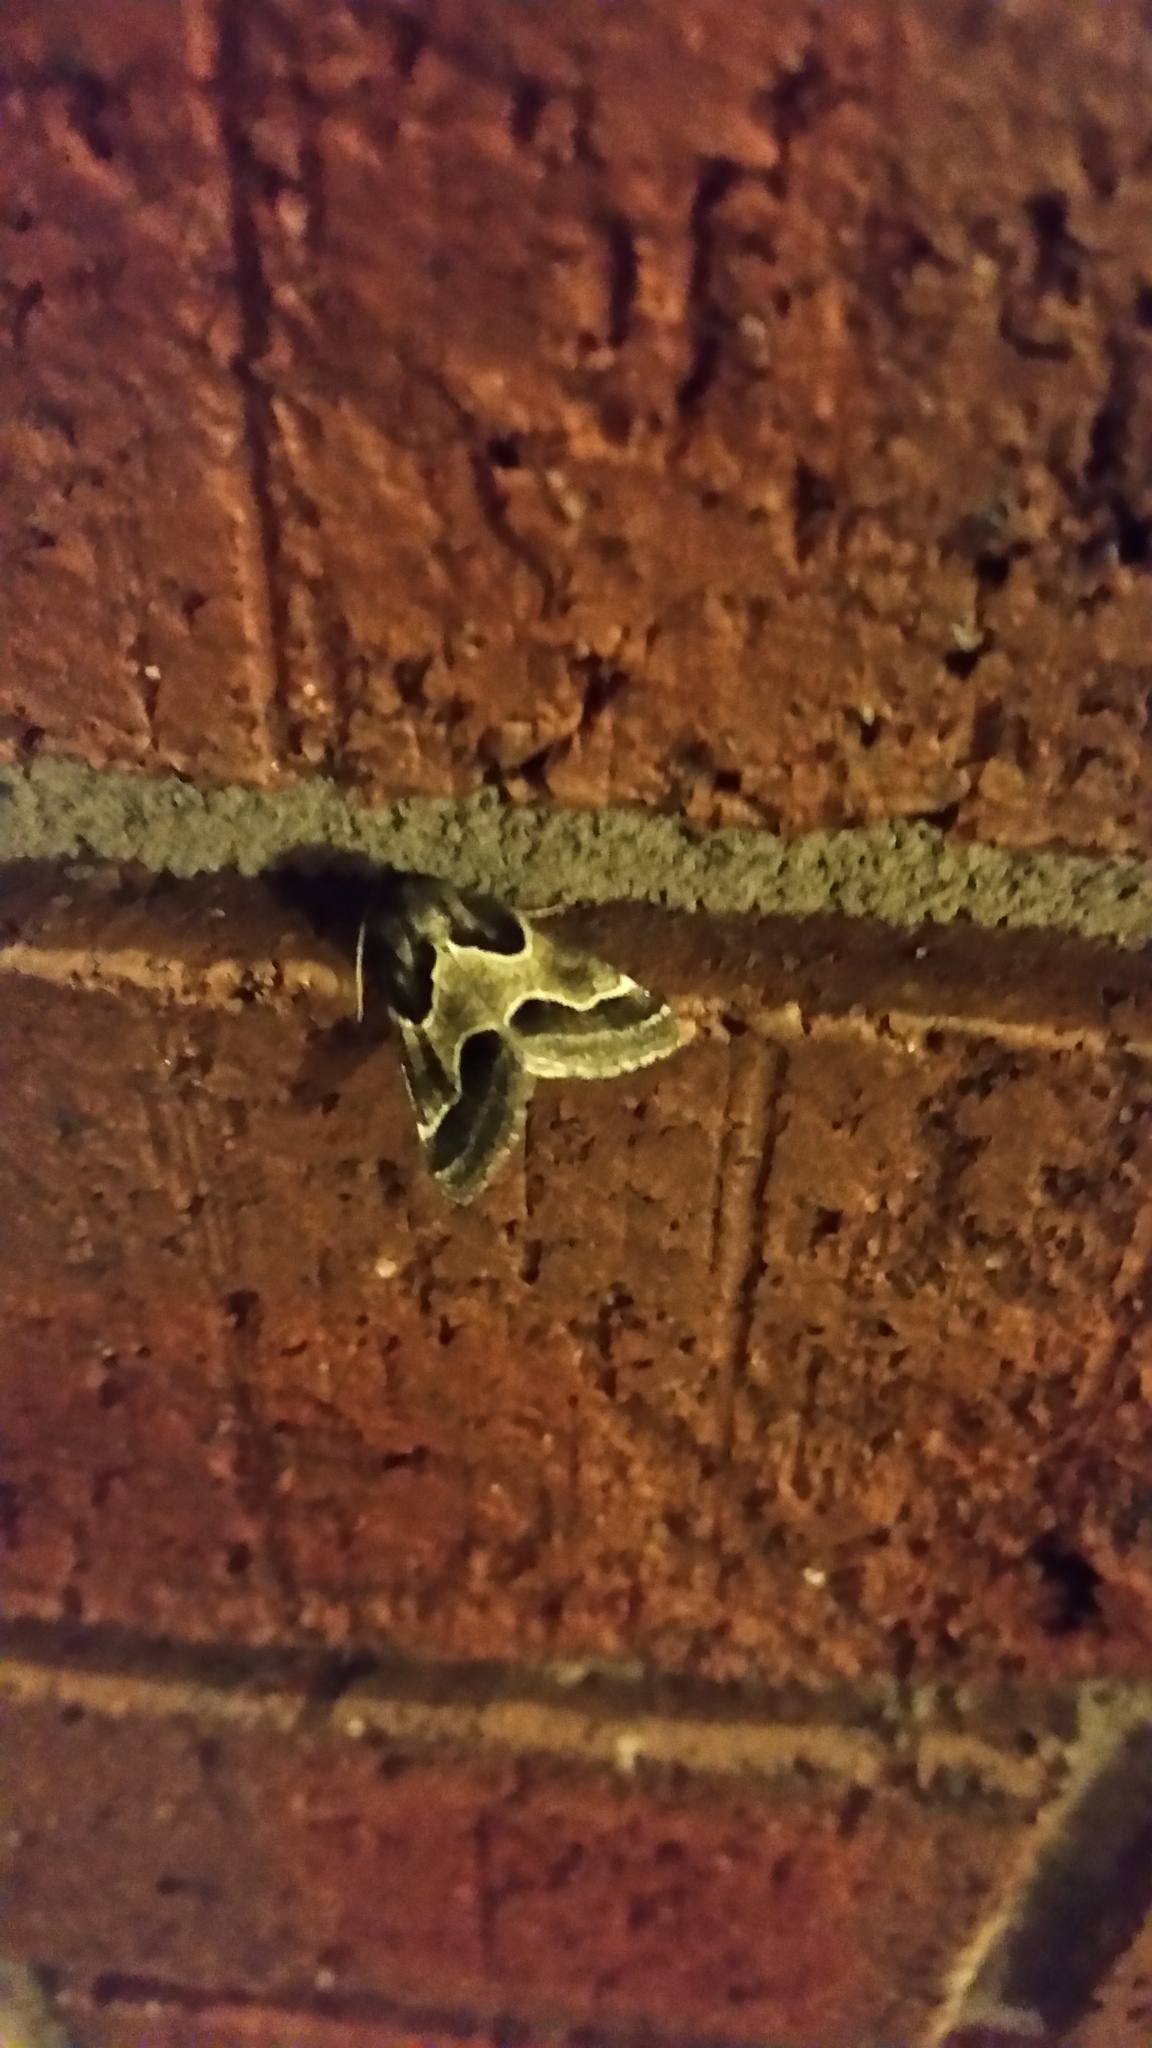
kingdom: Animalia
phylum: Arthropoda
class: Insecta
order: Lepidoptera
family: Noctuidae
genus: Schinia
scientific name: Schinia rivulosa
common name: Scarce meal-moth
